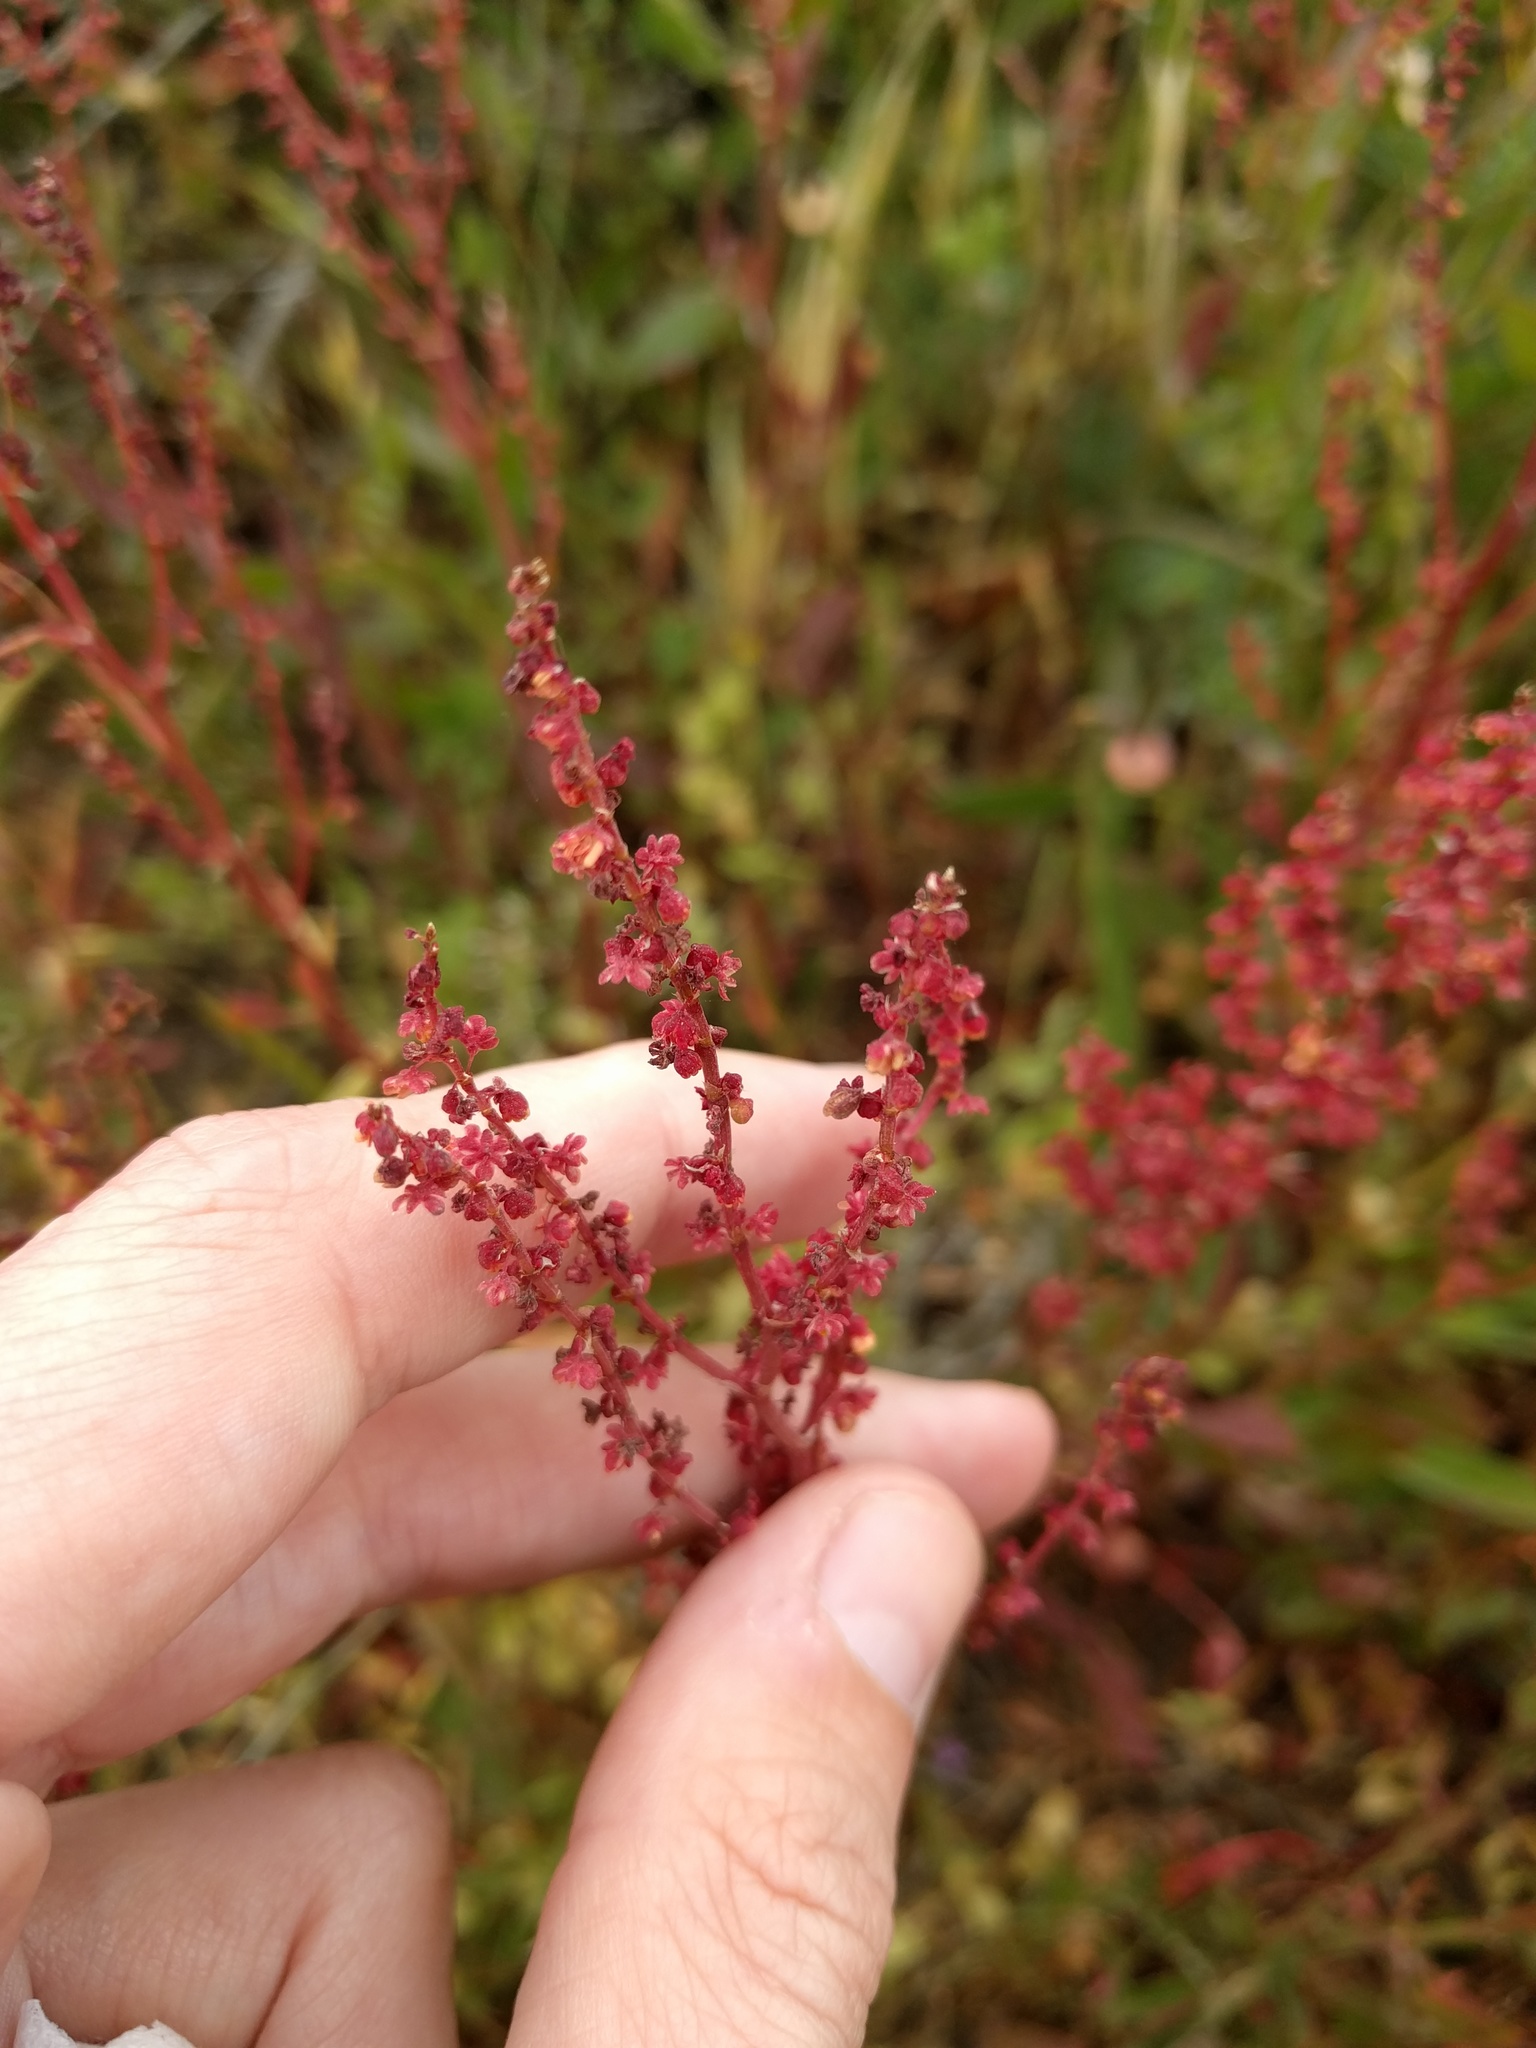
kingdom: Plantae
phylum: Tracheophyta
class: Magnoliopsida
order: Caryophyllales
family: Polygonaceae
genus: Rumex
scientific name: Rumex acetosella
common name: Common sheep sorrel
